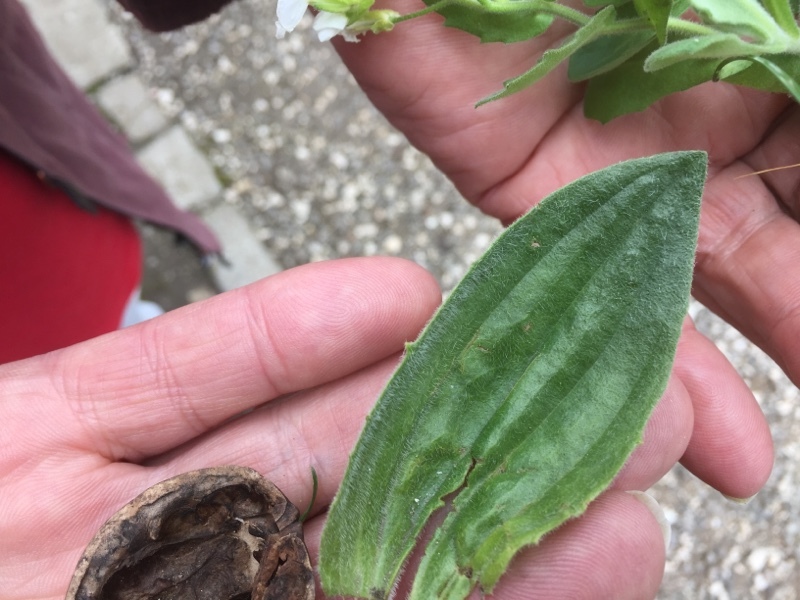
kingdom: Plantae
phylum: Tracheophyta
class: Magnoliopsida
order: Lamiales
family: Plantaginaceae
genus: Plantago
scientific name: Plantago media
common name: Hoary plantain
